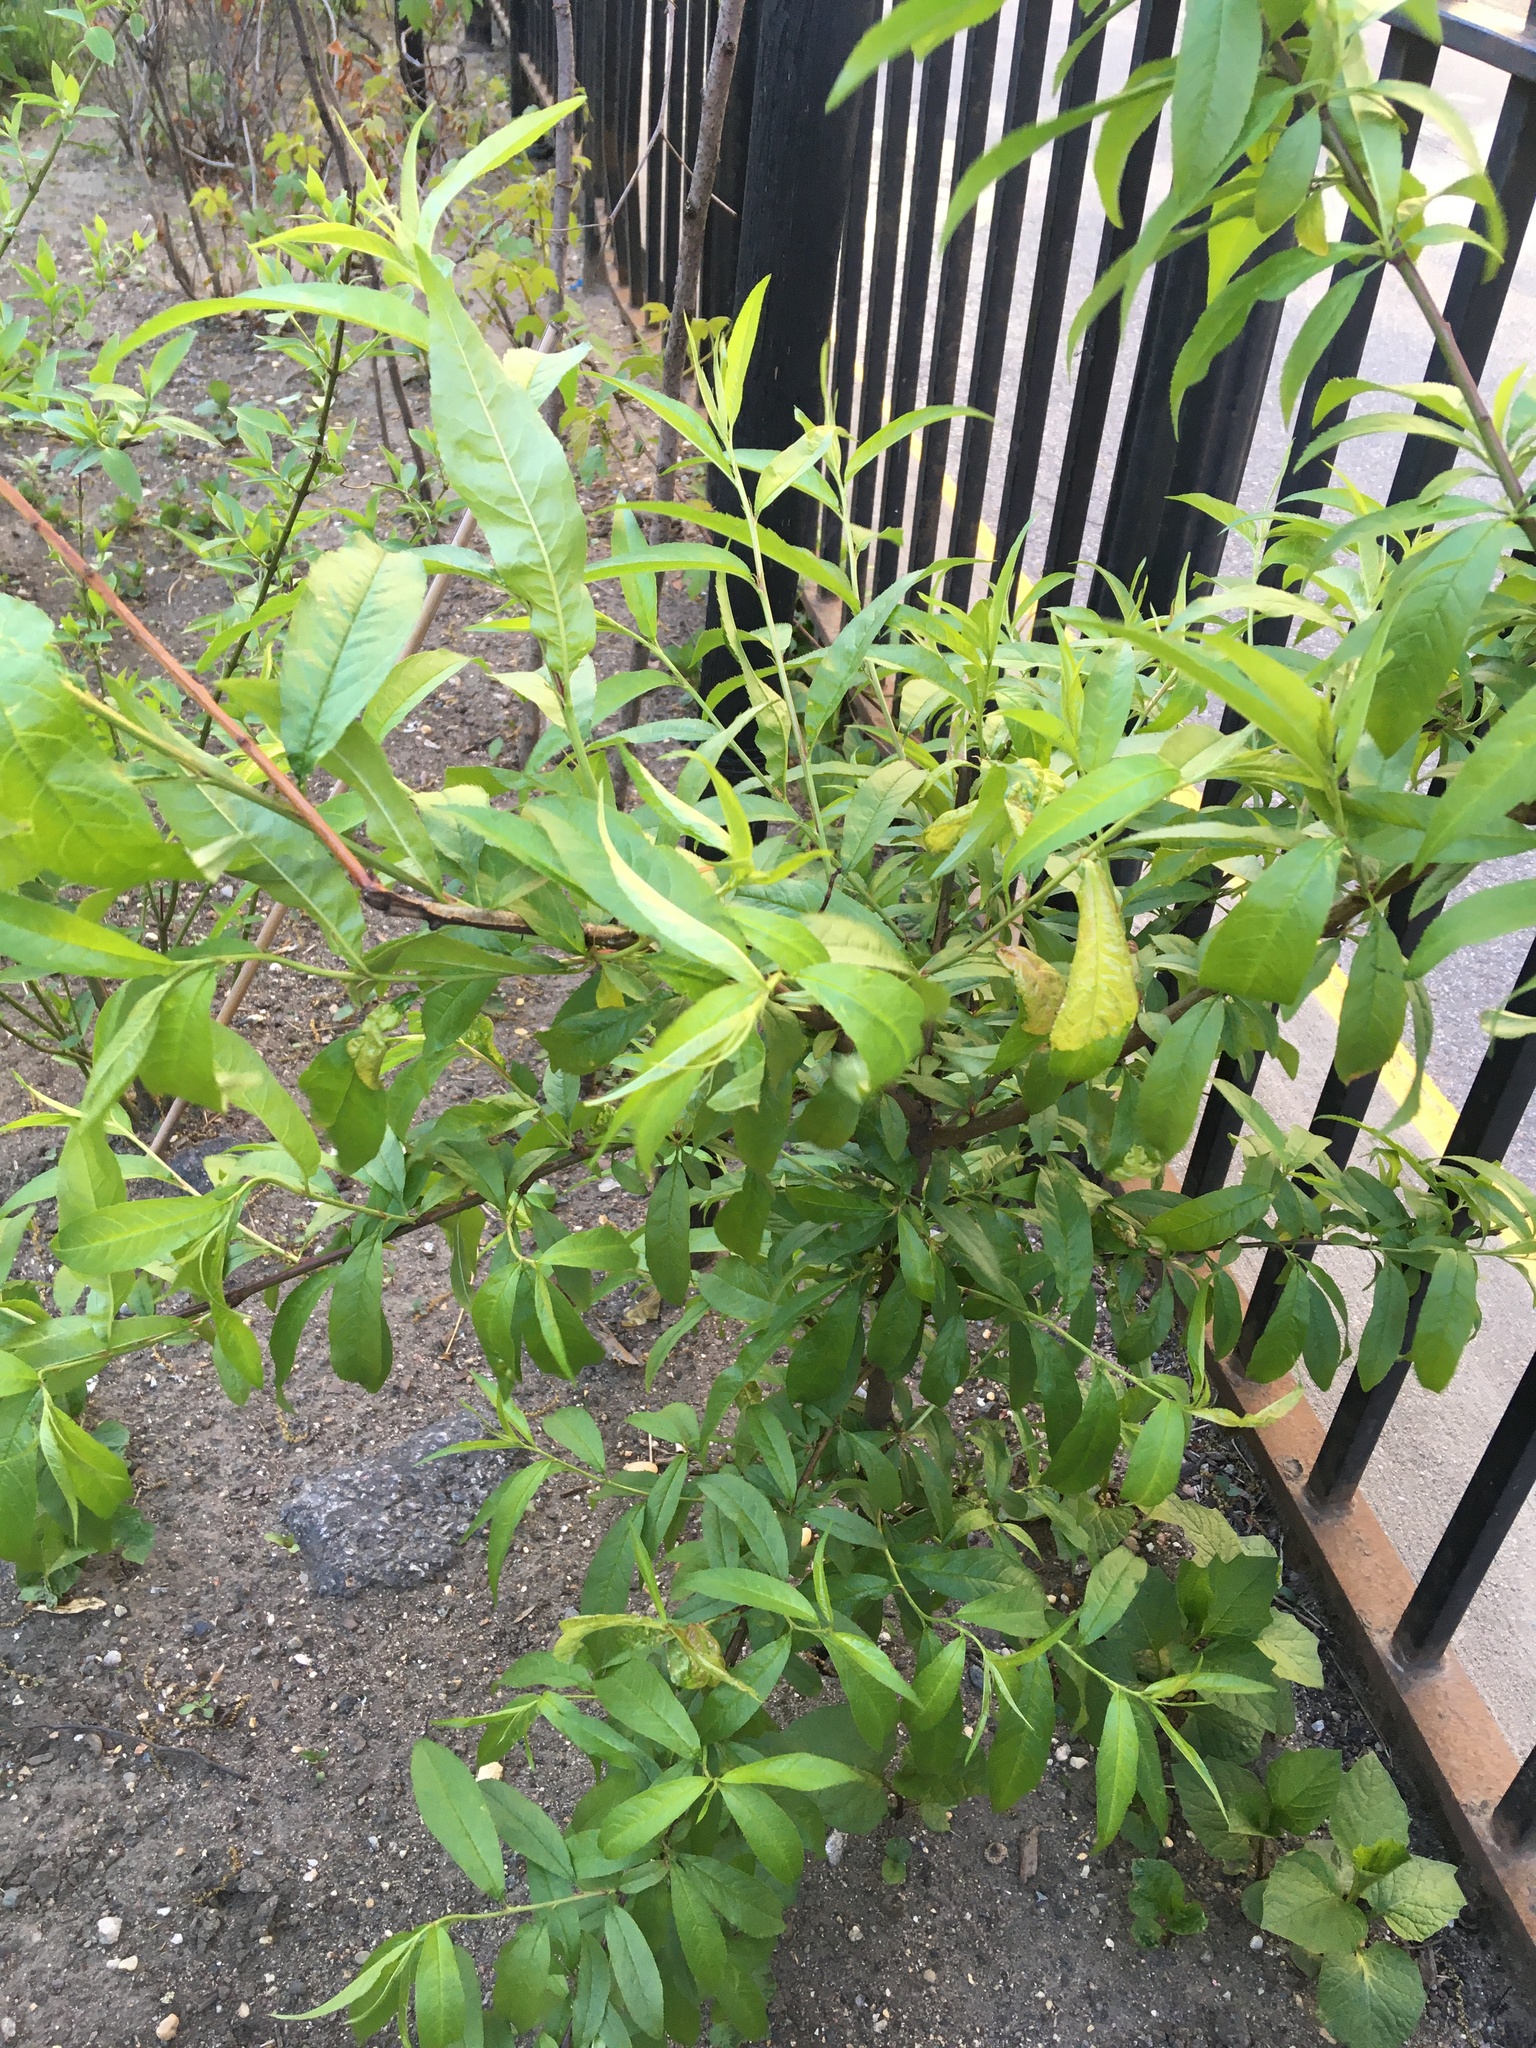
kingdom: Plantae
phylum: Tracheophyta
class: Magnoliopsida
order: Rosales
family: Rosaceae
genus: Prunus
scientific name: Prunus persica
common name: Peach
